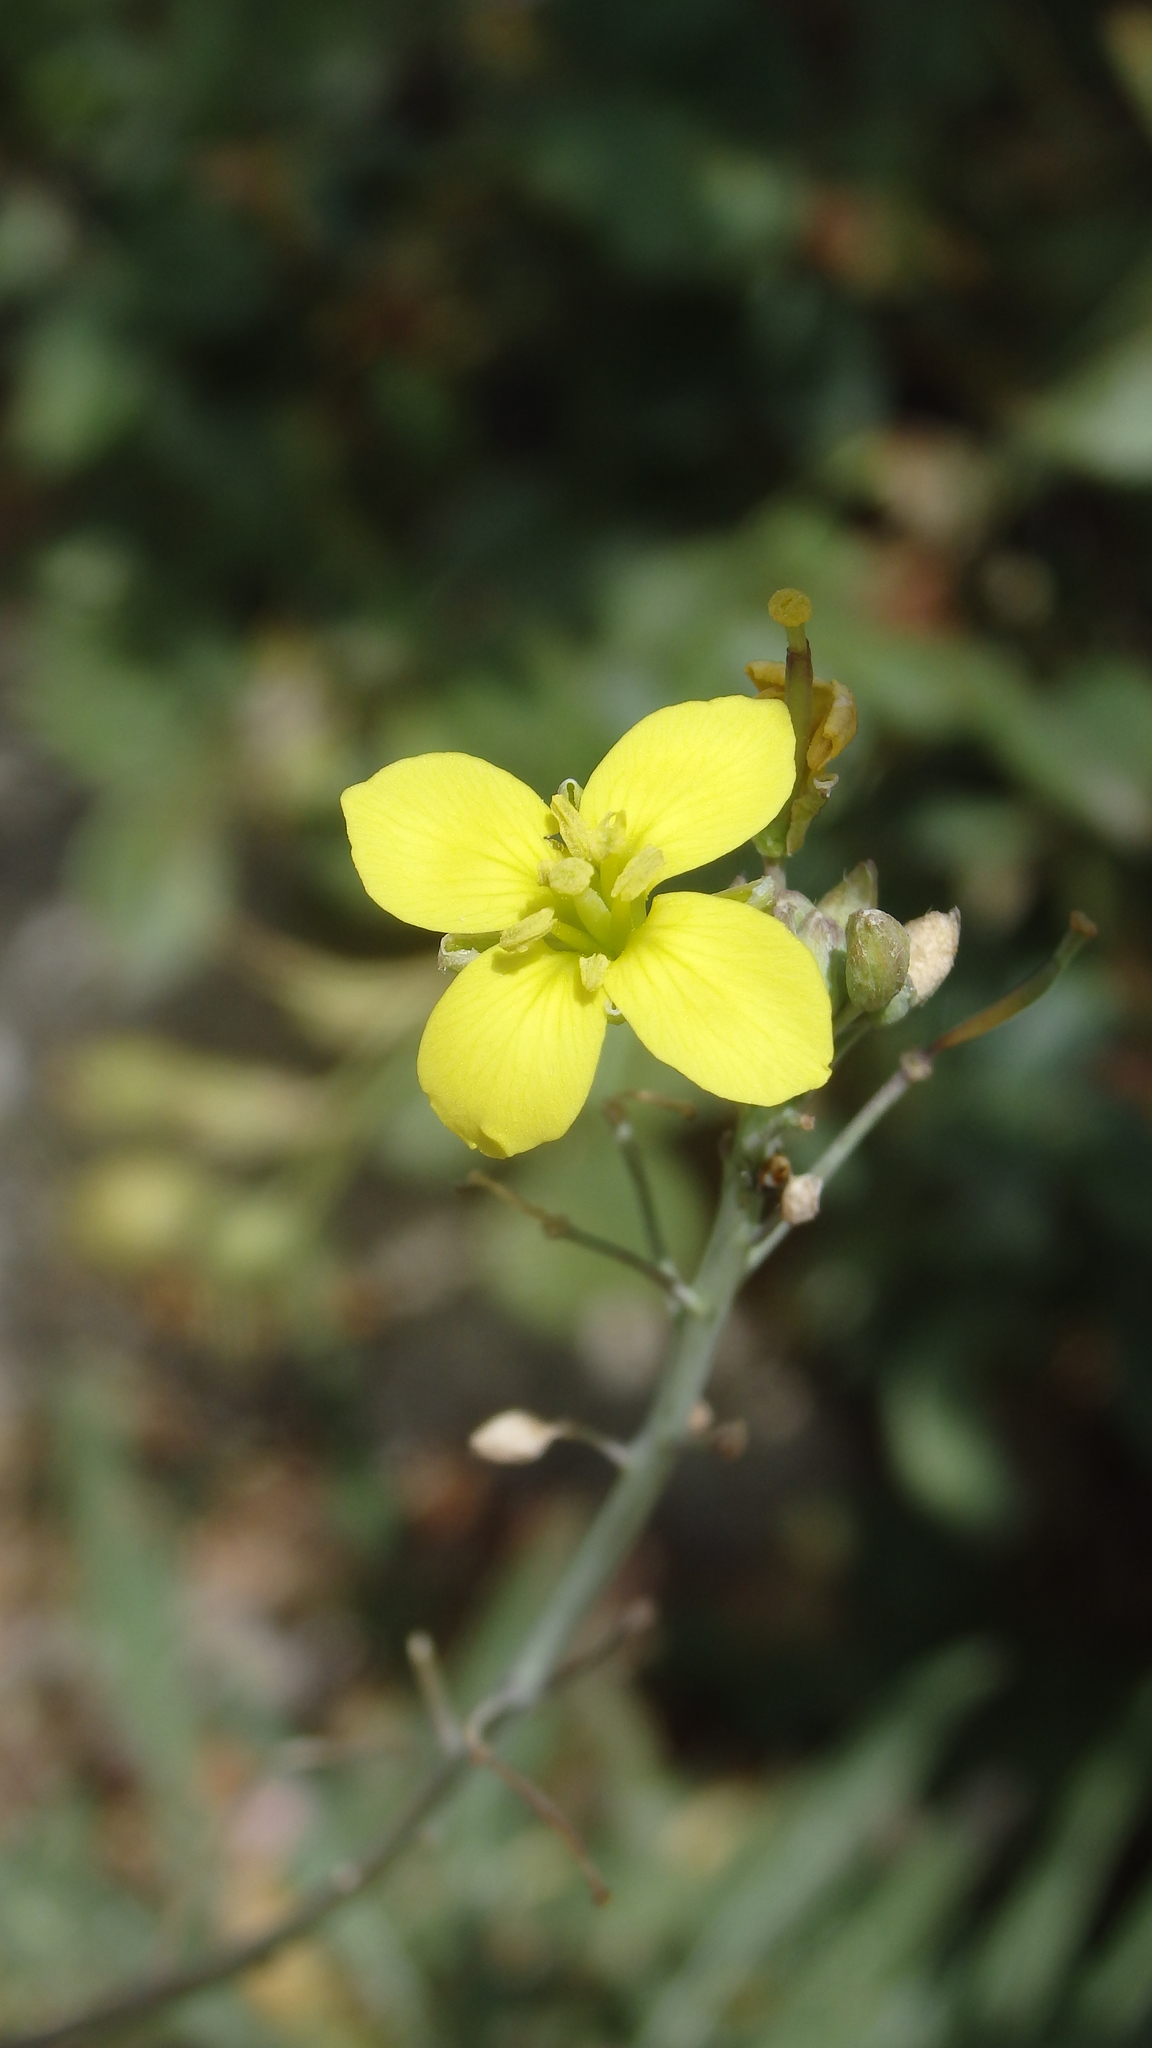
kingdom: Plantae
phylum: Tracheophyta
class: Magnoliopsida
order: Brassicales
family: Brassicaceae
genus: Diplotaxis
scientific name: Diplotaxis tenuifolia
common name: Perennial wall-rocket
